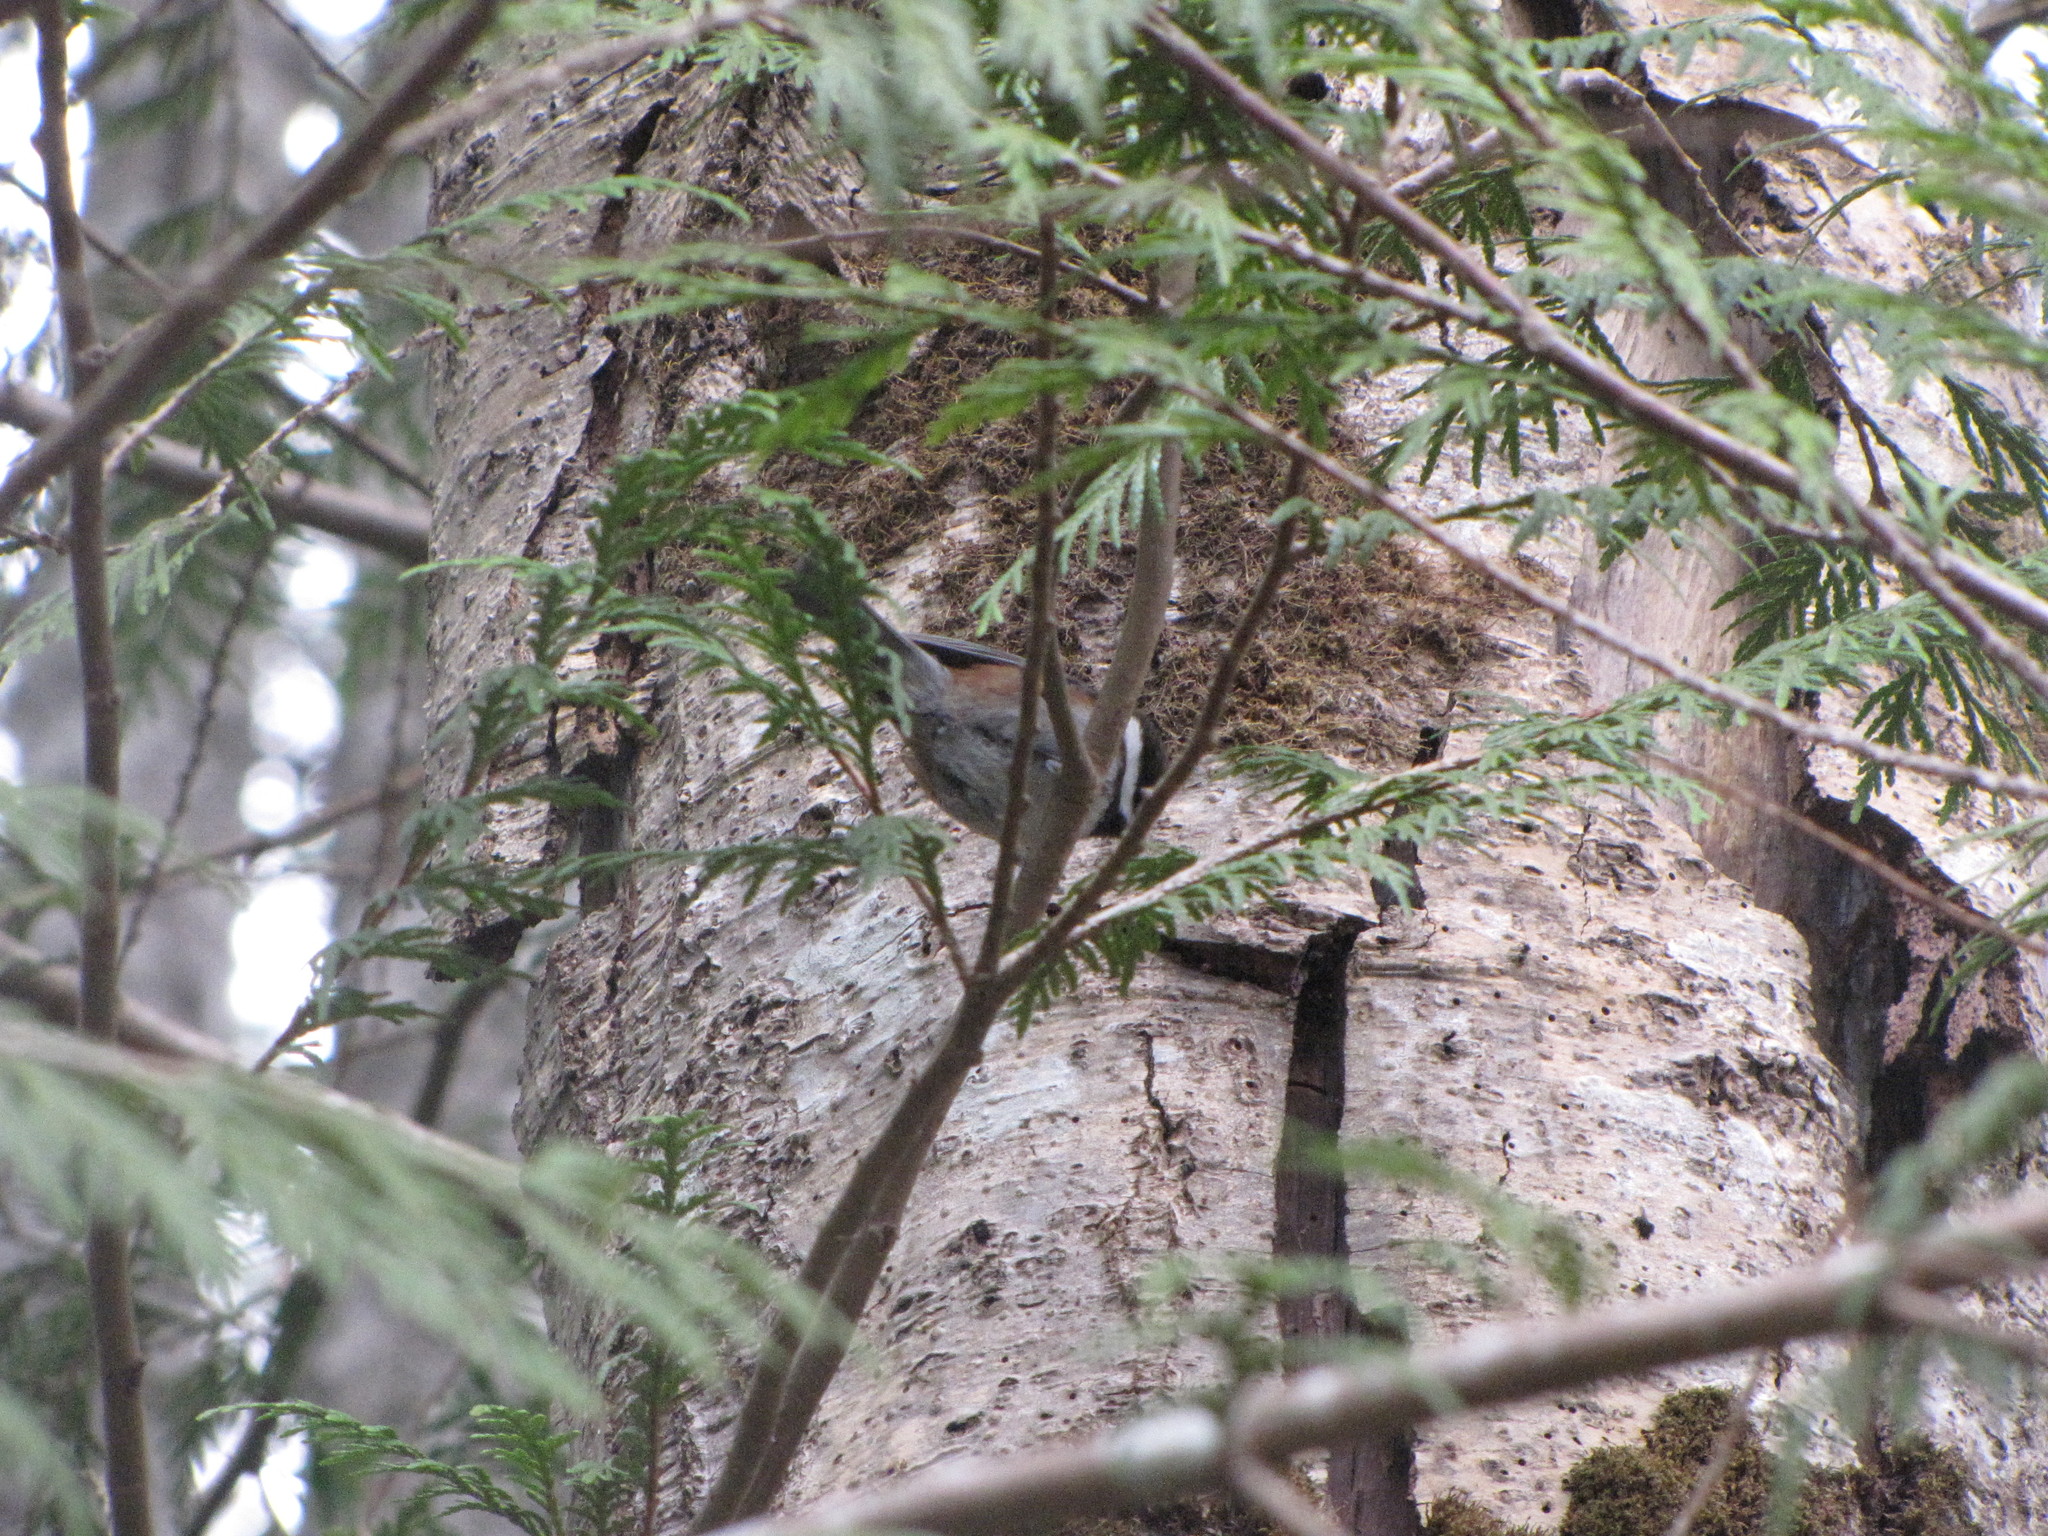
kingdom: Animalia
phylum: Chordata
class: Aves
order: Passeriformes
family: Paridae
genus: Poecile
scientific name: Poecile rufescens
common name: Chestnut-backed chickadee
